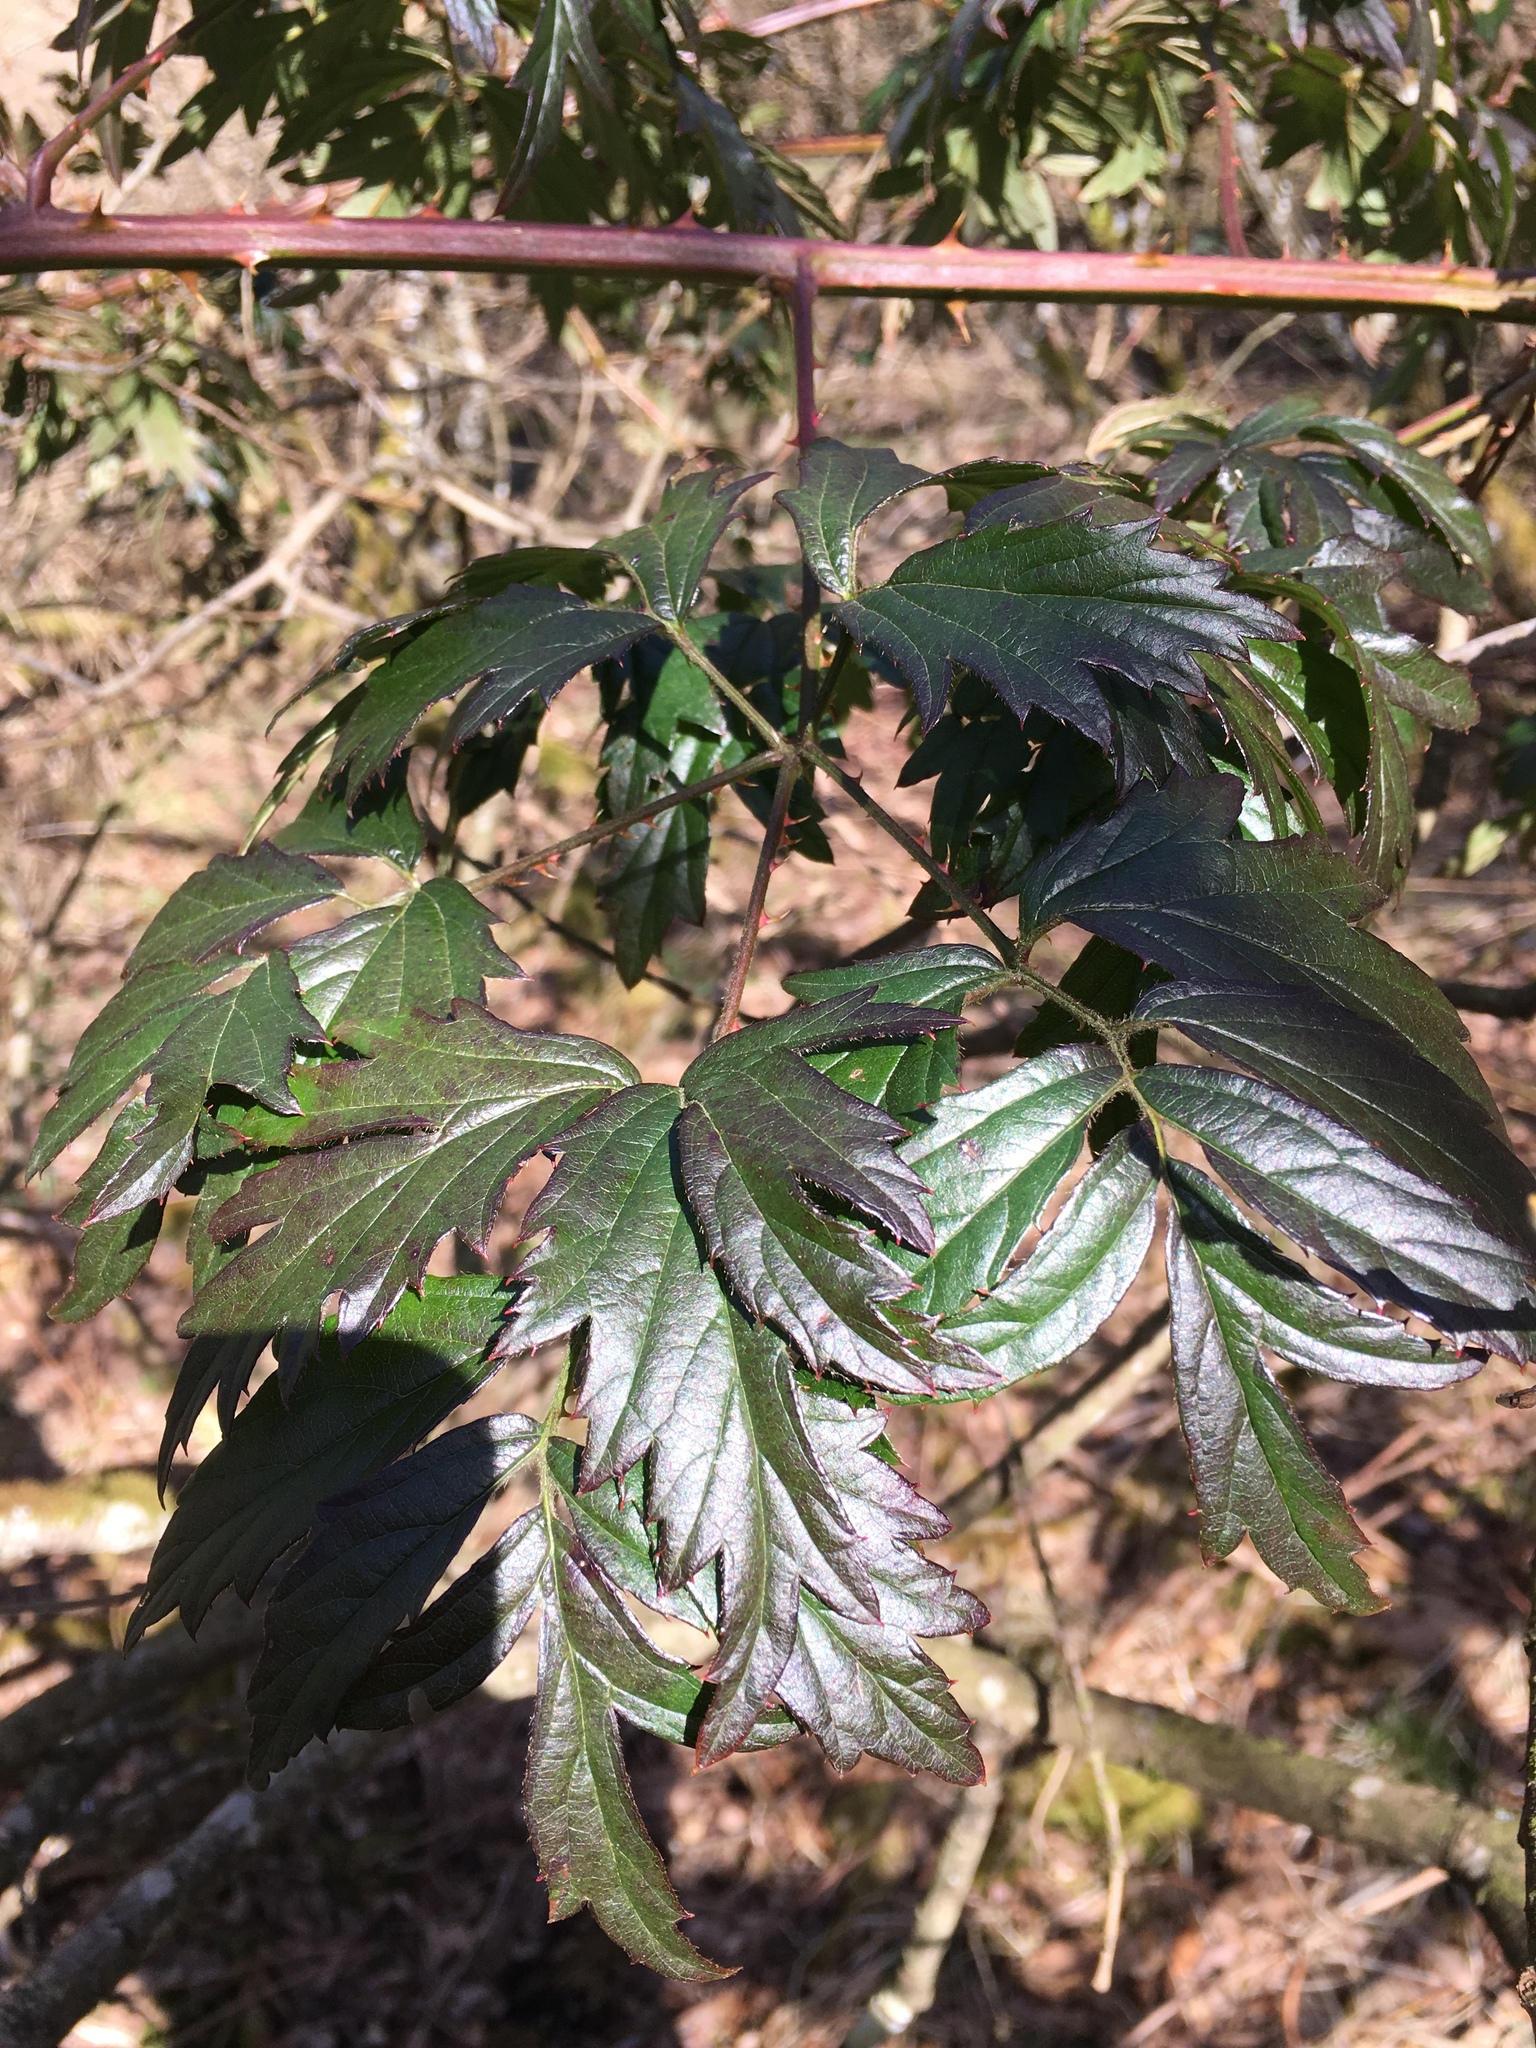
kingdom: Plantae
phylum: Tracheophyta
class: Magnoliopsida
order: Rosales
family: Rosaceae
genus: Rubus
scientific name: Rubus laciniatus
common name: Evergreen blackberry
